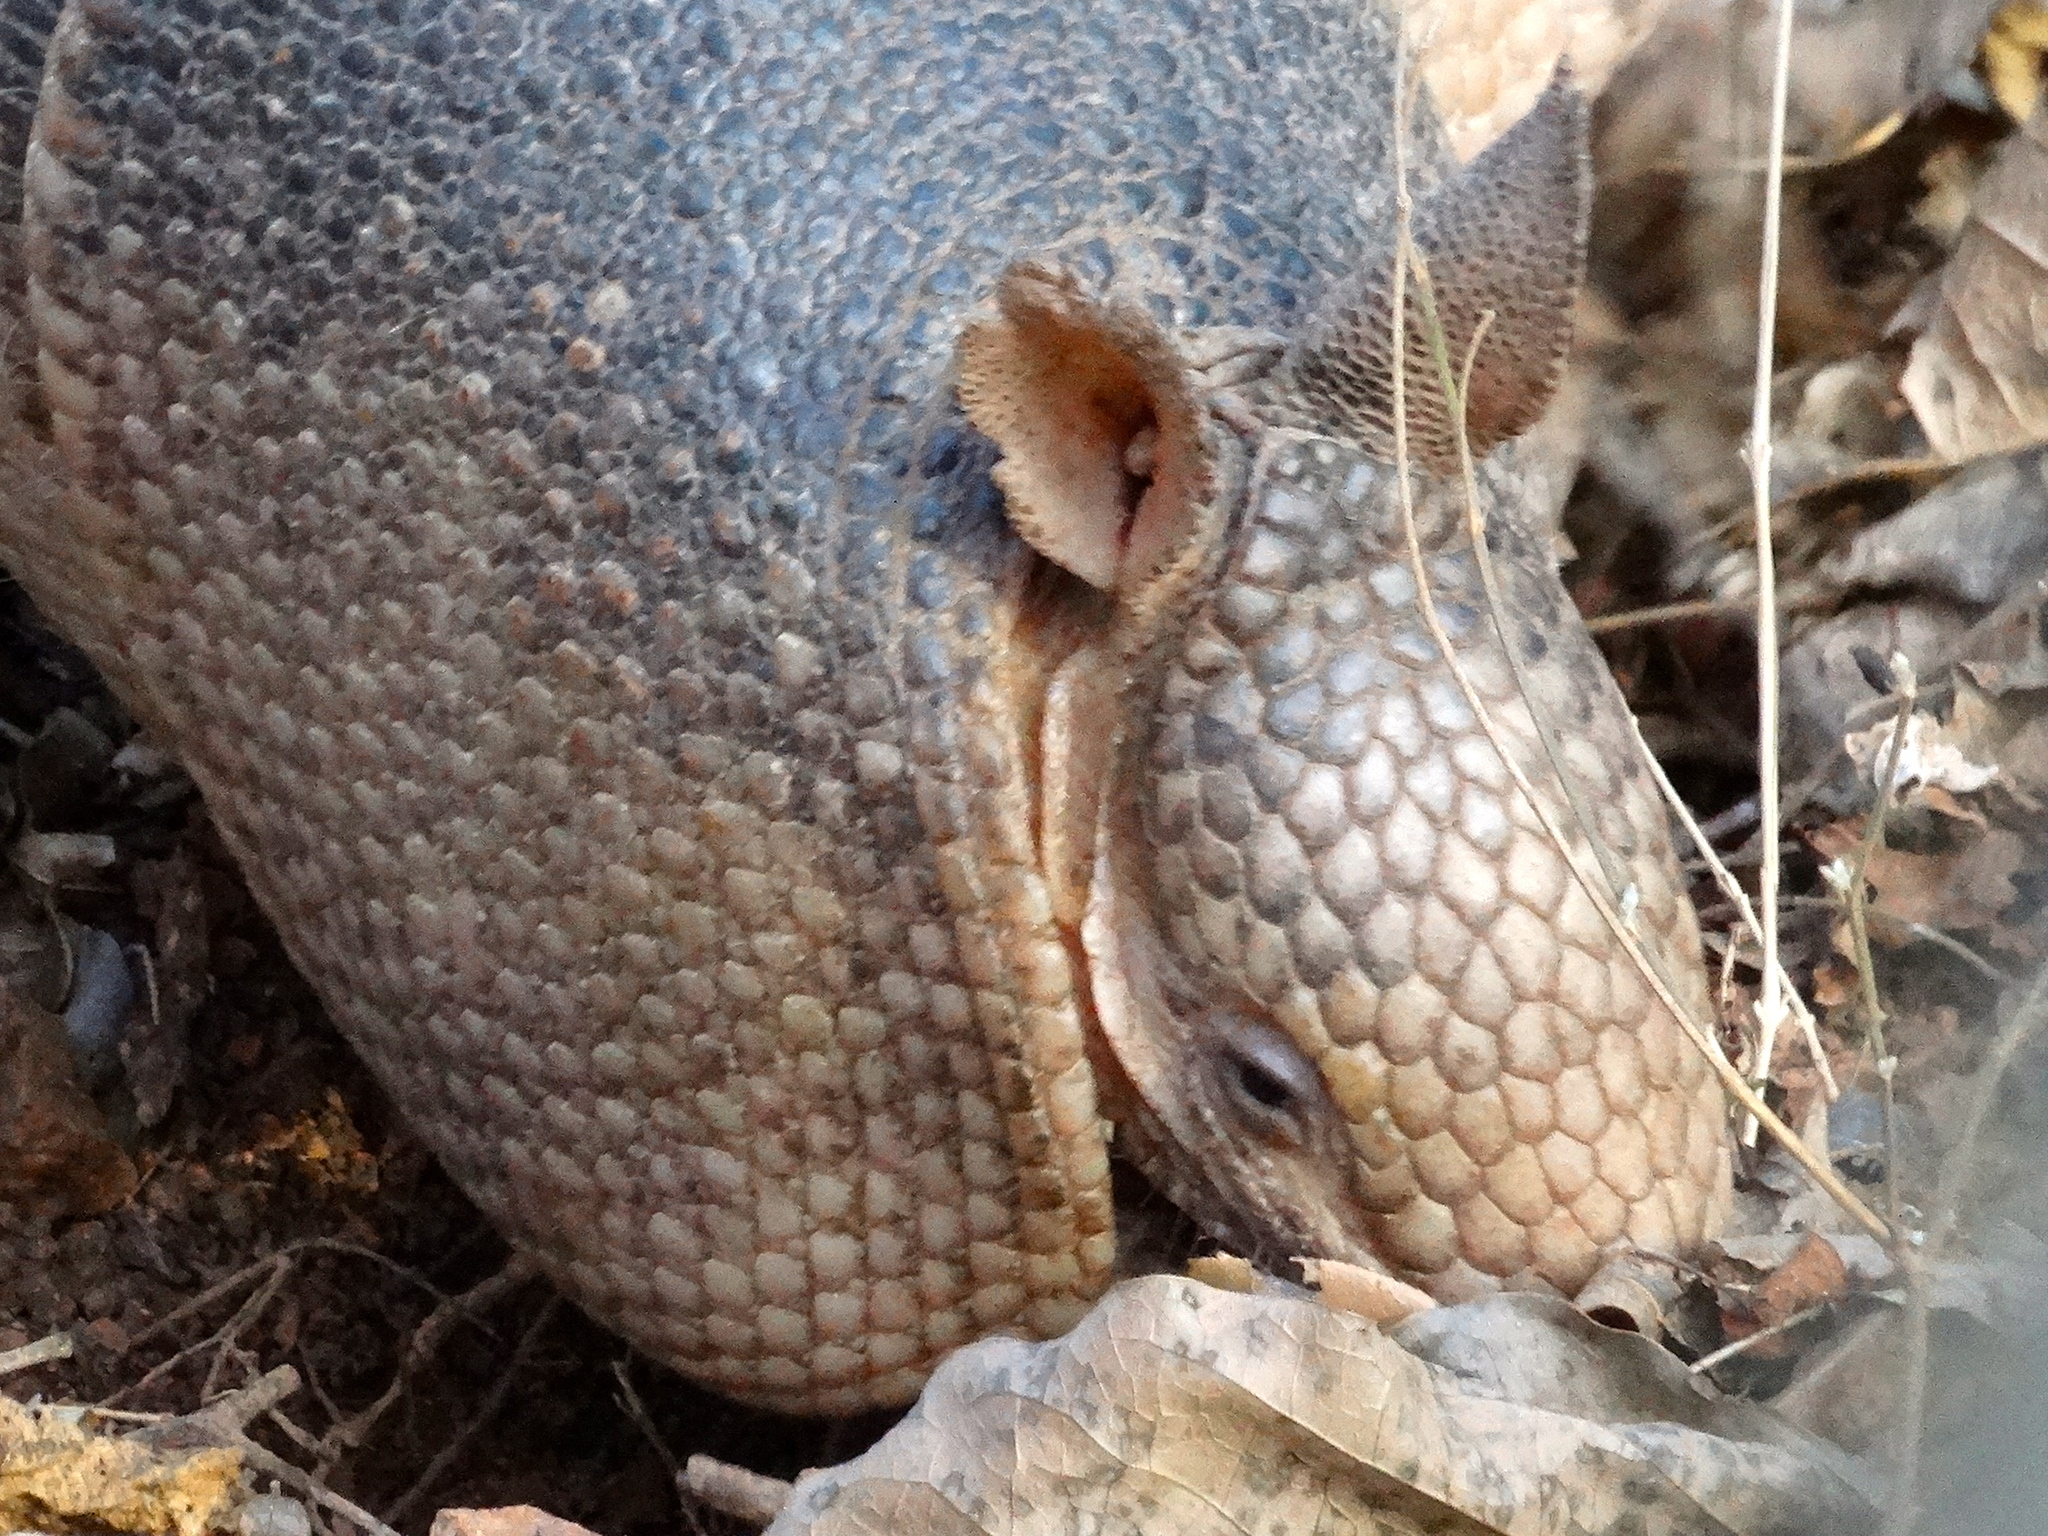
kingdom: Animalia
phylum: Chordata
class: Mammalia
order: Cingulata
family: Dasypodidae
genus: Dasypus
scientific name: Dasypus novemcinctus
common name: Nine-banded armadillo
